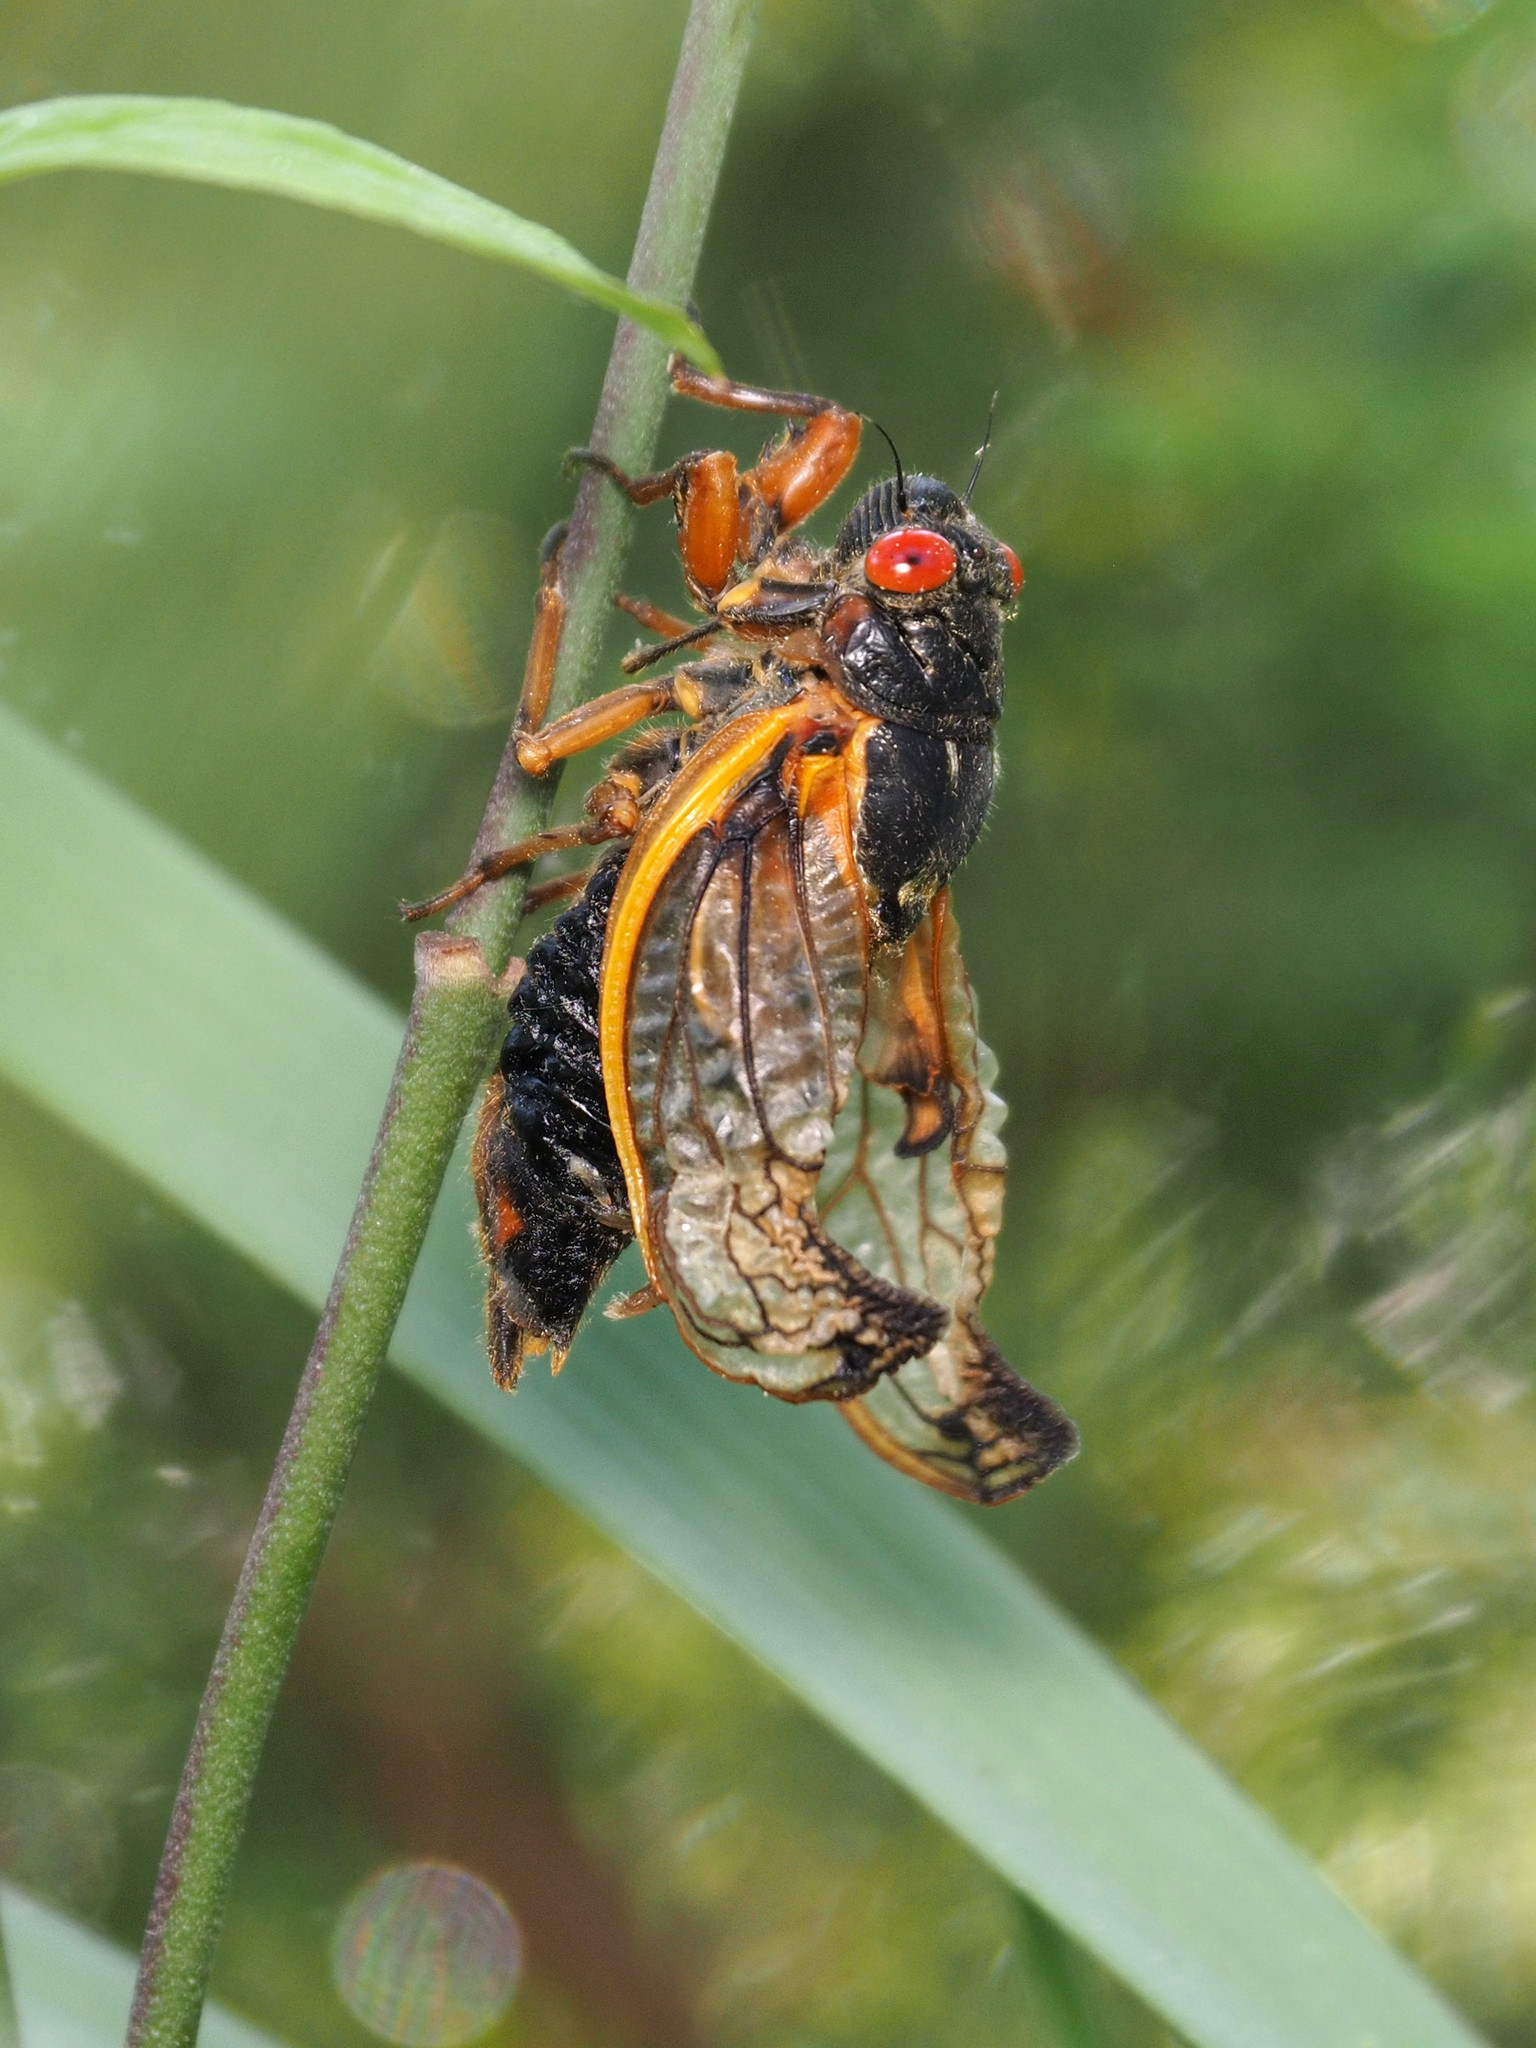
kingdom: Animalia
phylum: Arthropoda
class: Insecta
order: Hemiptera
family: Cicadidae
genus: Magicicada
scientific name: Magicicada septendecim
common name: Periodical cicada
